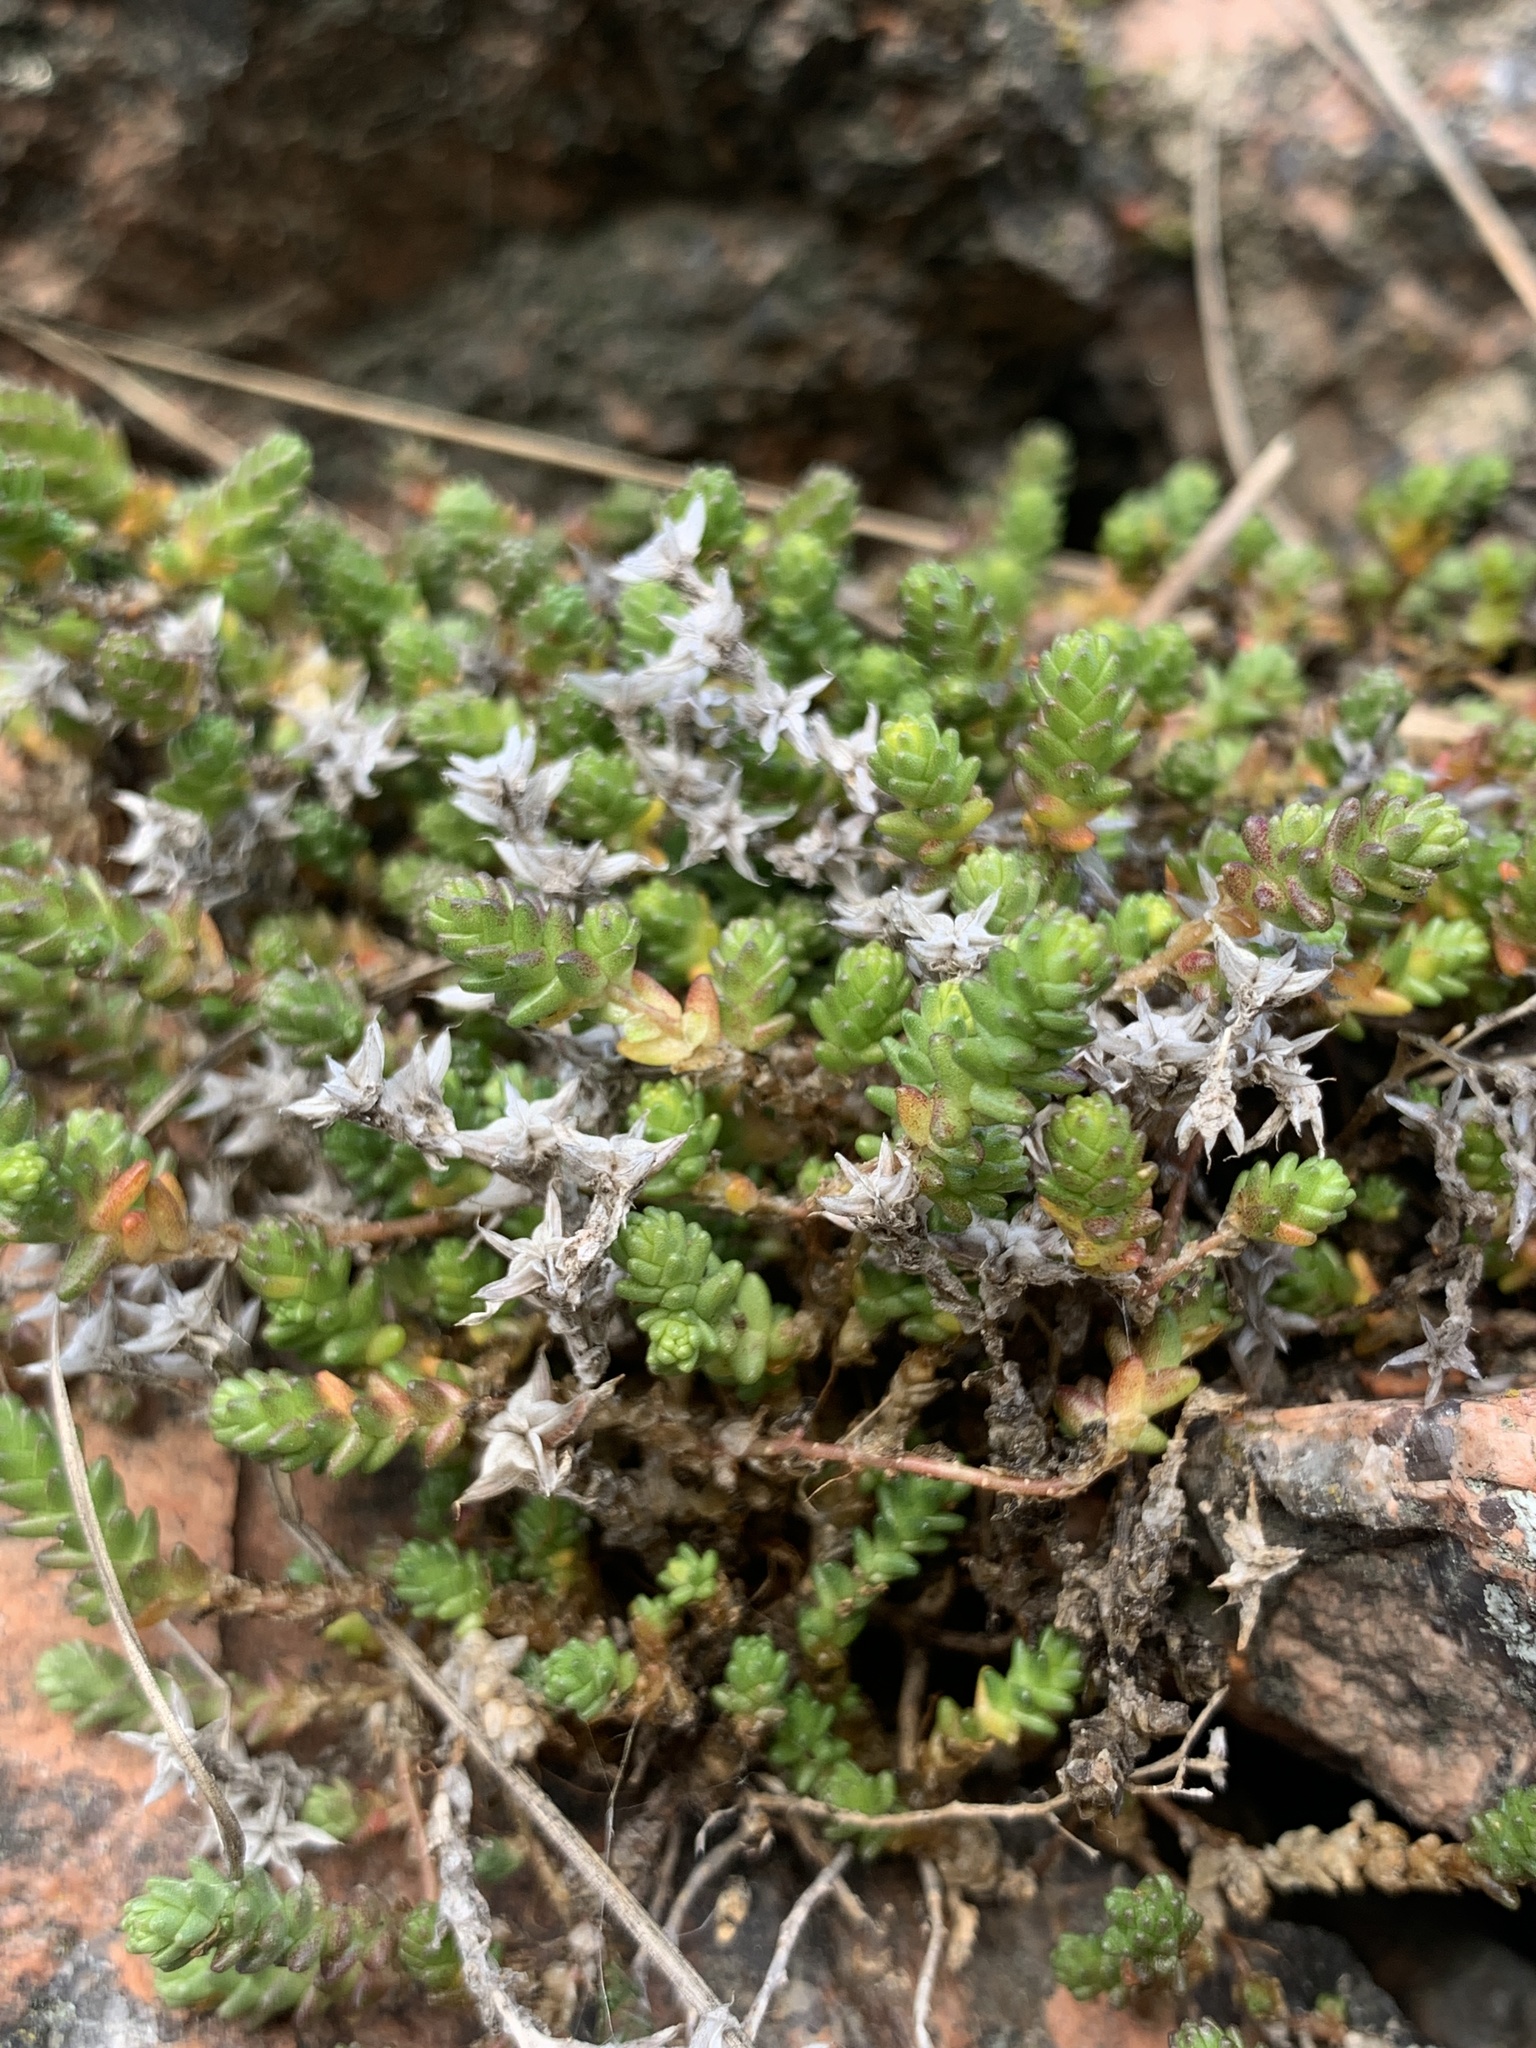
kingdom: Plantae
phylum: Tracheophyta
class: Magnoliopsida
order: Saxifragales
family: Crassulaceae
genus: Sedum
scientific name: Sedum acre
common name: Biting stonecrop
